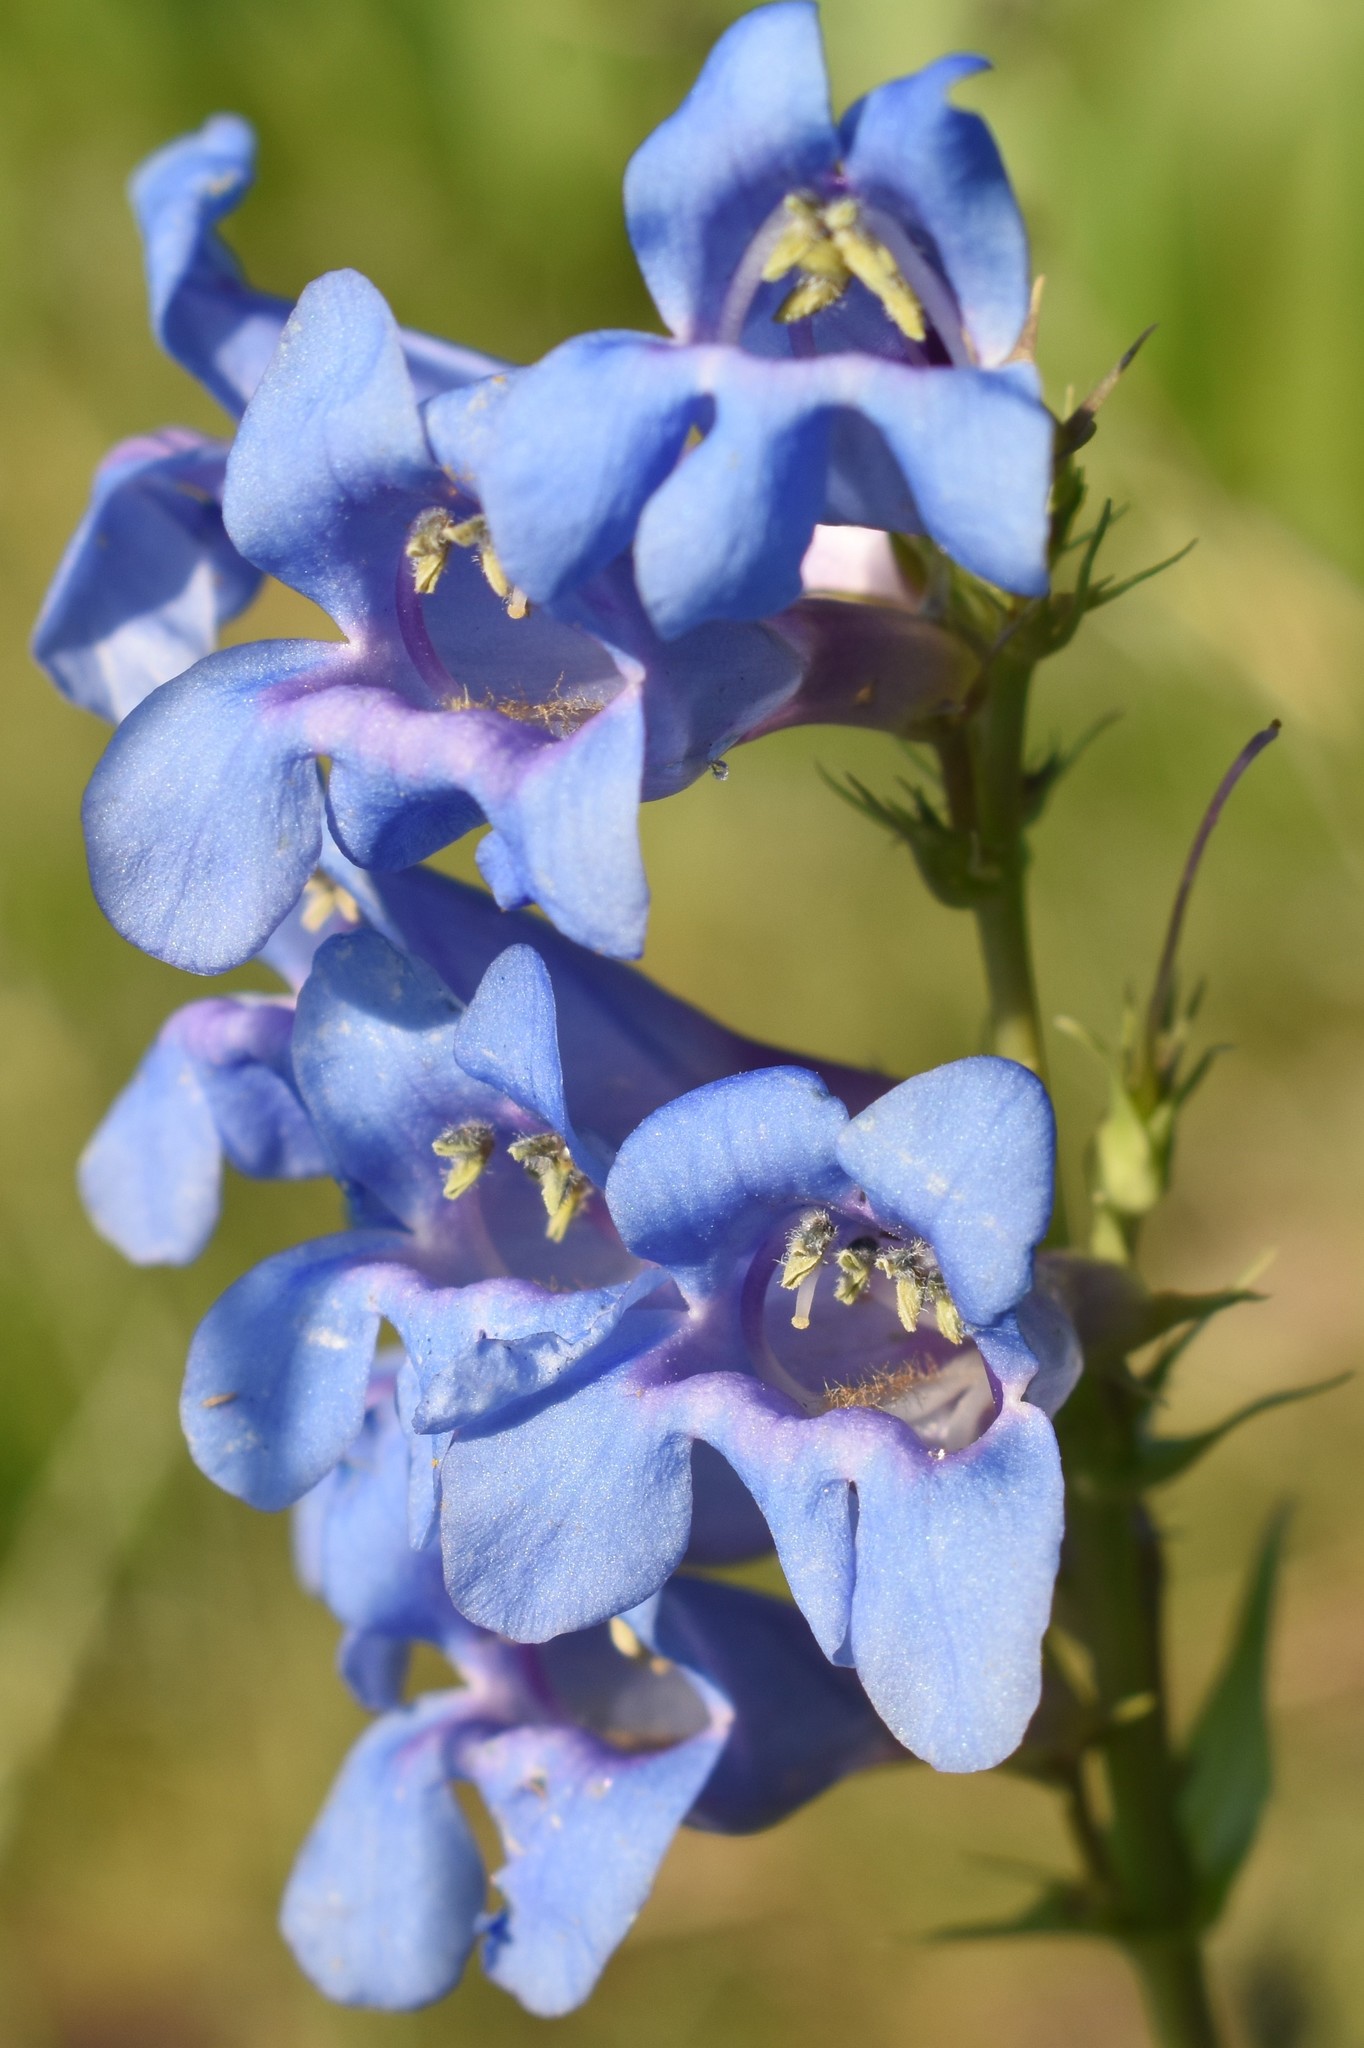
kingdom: Plantae
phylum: Tracheophyta
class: Magnoliopsida
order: Lamiales
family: Plantaginaceae
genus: Penstemon
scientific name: Penstemon cyananthus
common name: Wasatch penstemon
